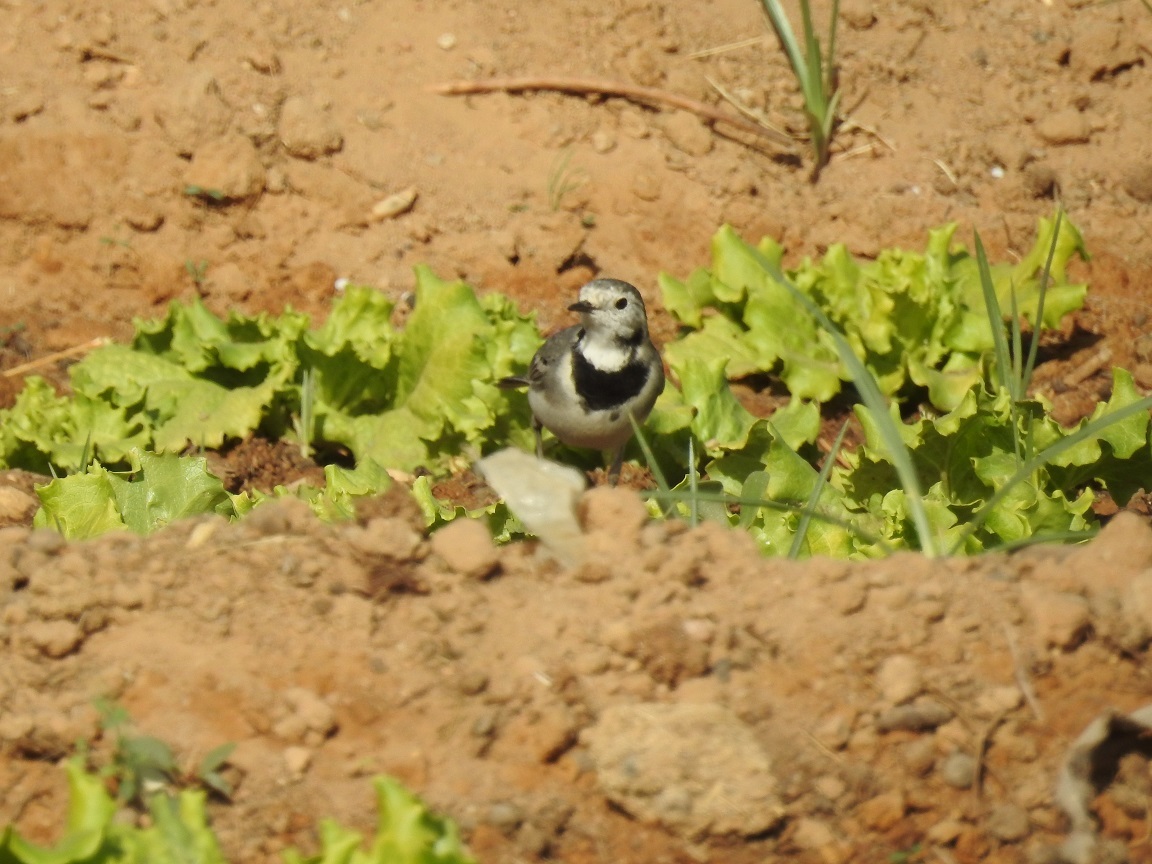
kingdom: Animalia
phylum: Chordata
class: Aves
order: Passeriformes
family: Motacillidae
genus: Motacilla
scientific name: Motacilla alba
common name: White wagtail
